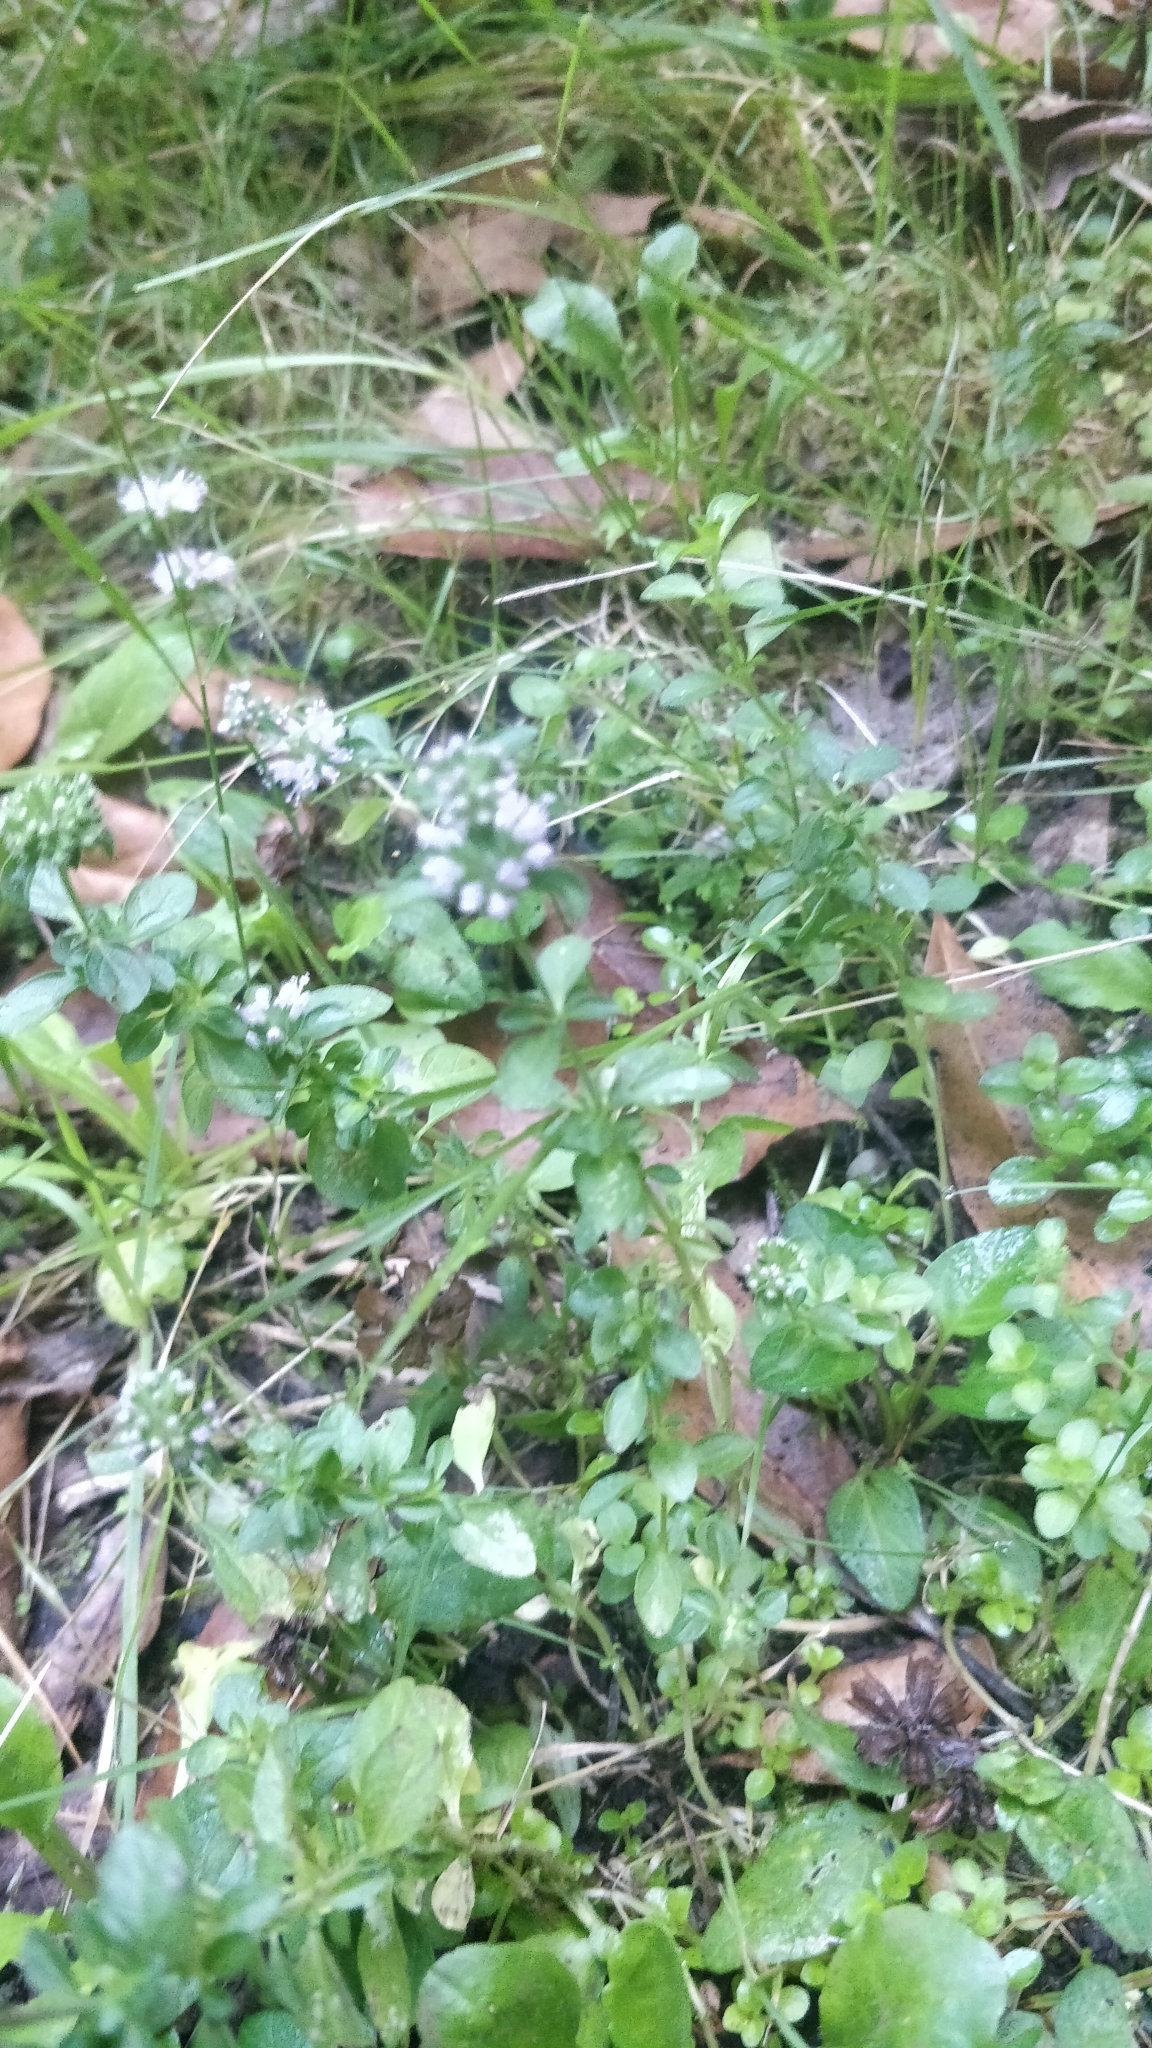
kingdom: Plantae
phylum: Tracheophyta
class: Magnoliopsida
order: Lamiales
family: Lamiaceae
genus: Mentha
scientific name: Mentha aquatica
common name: Water mint
